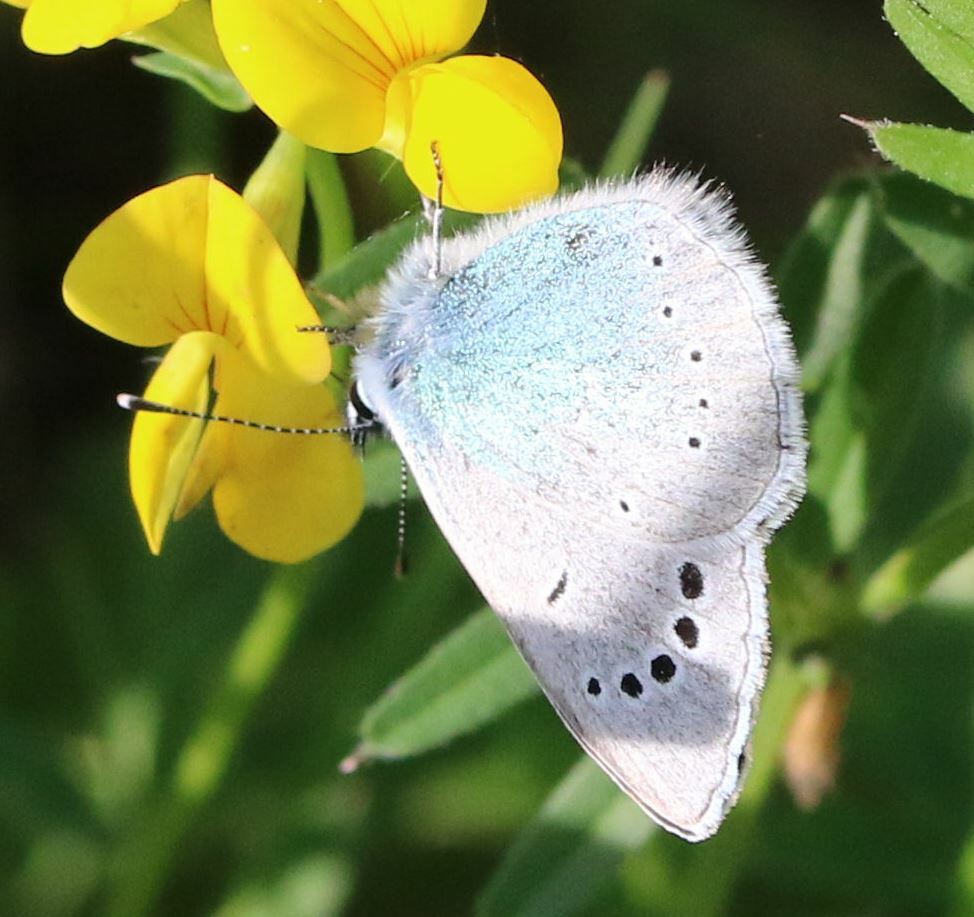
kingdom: Animalia
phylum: Arthropoda
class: Insecta
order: Lepidoptera
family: Lycaenidae
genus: Glaucopsyche
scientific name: Glaucopsyche alexis
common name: Green-underside blue
